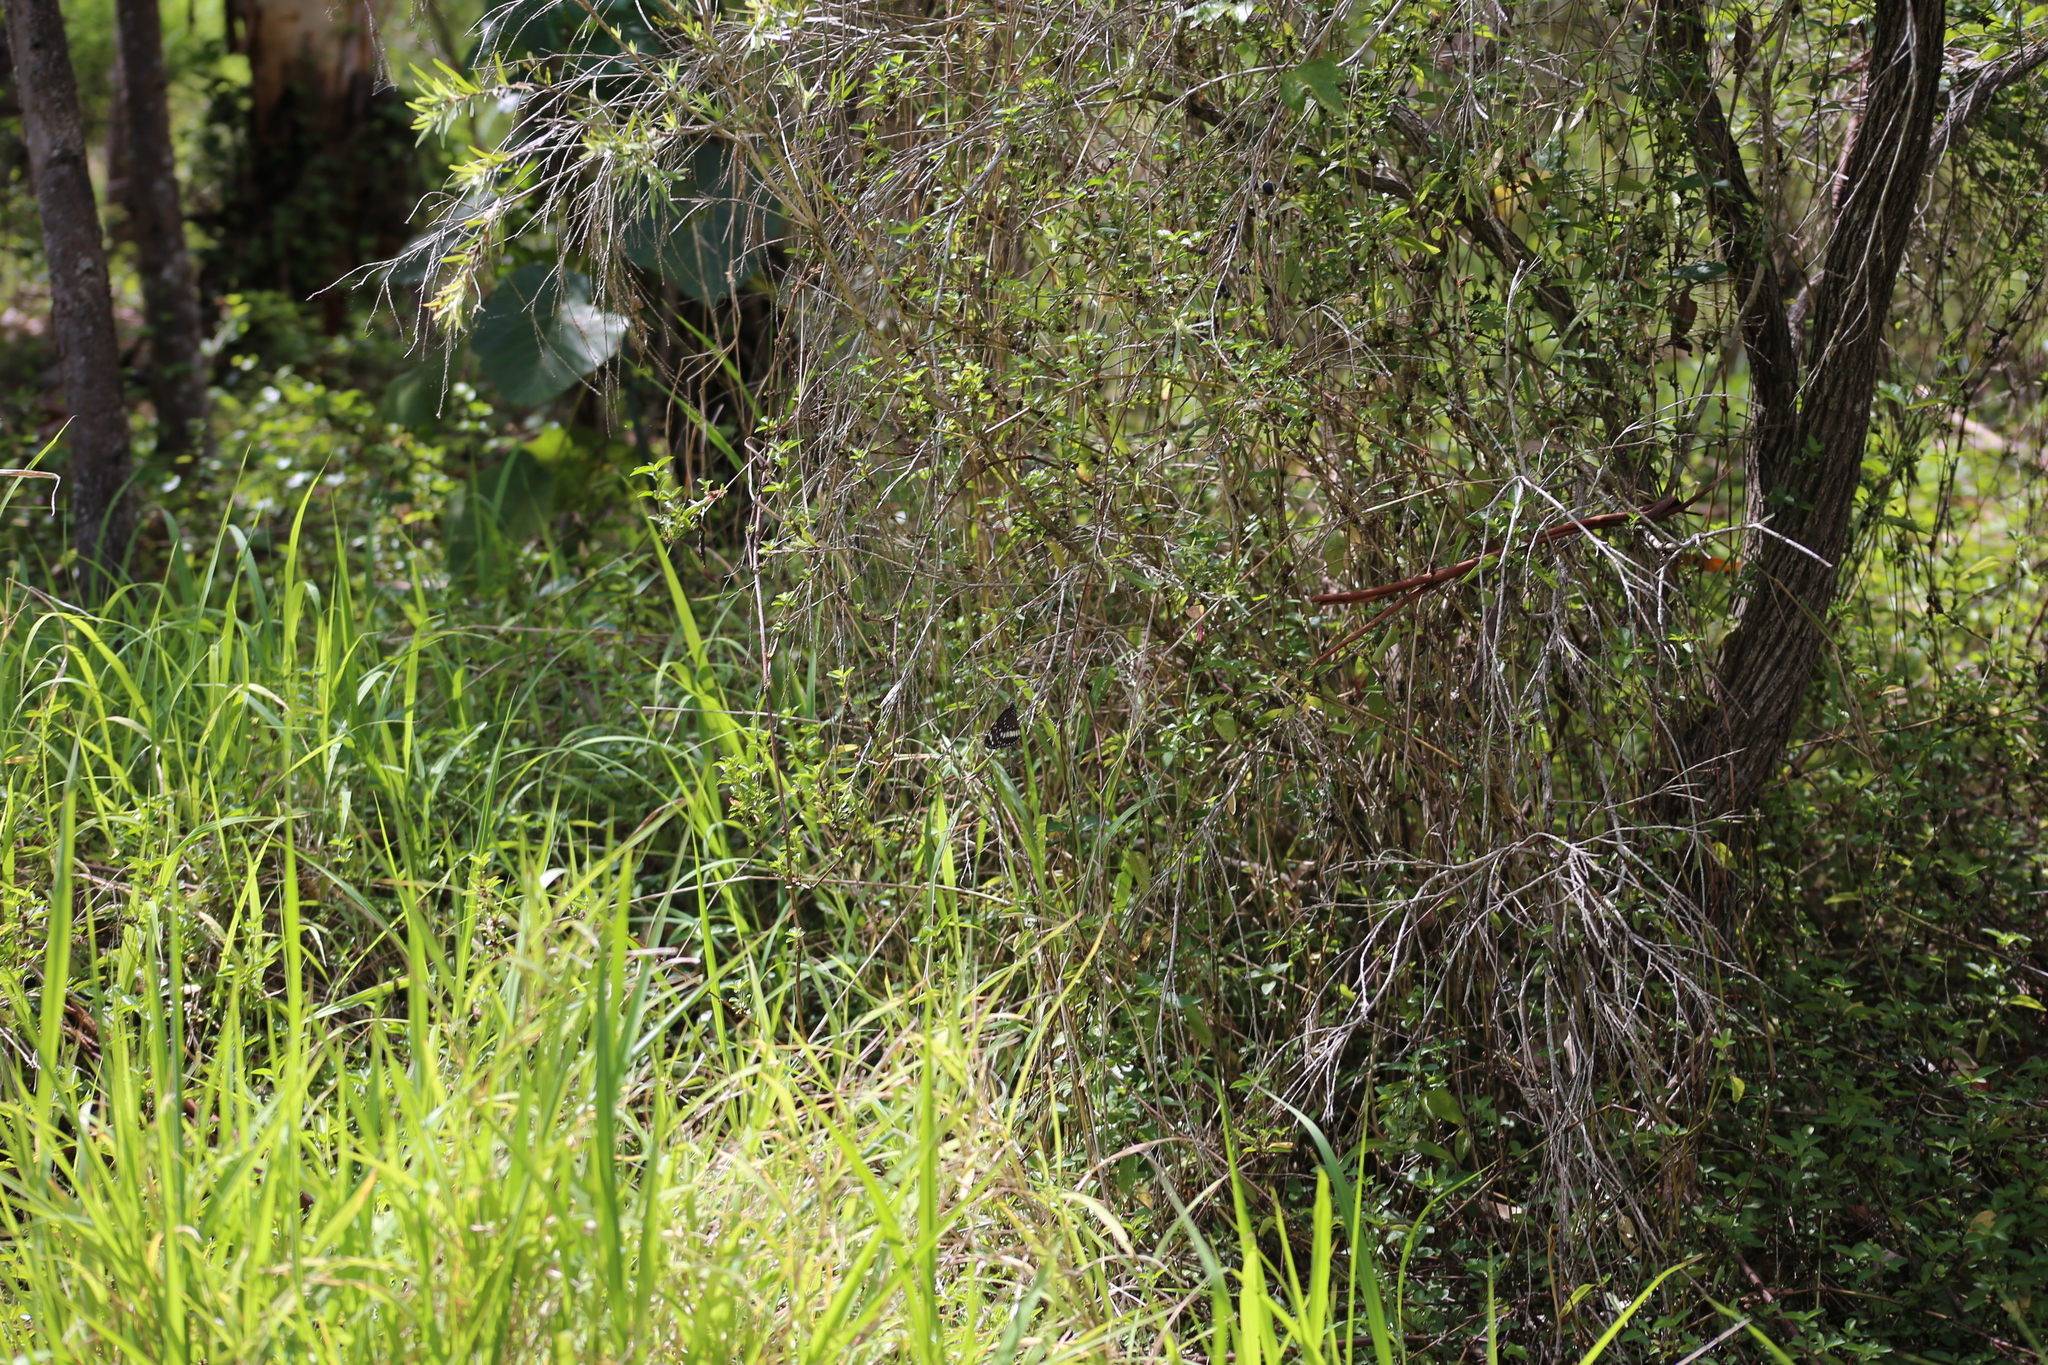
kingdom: Animalia
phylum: Arthropoda
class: Insecta
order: Lepidoptera
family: Nymphalidae
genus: Euploea
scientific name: Euploea core
